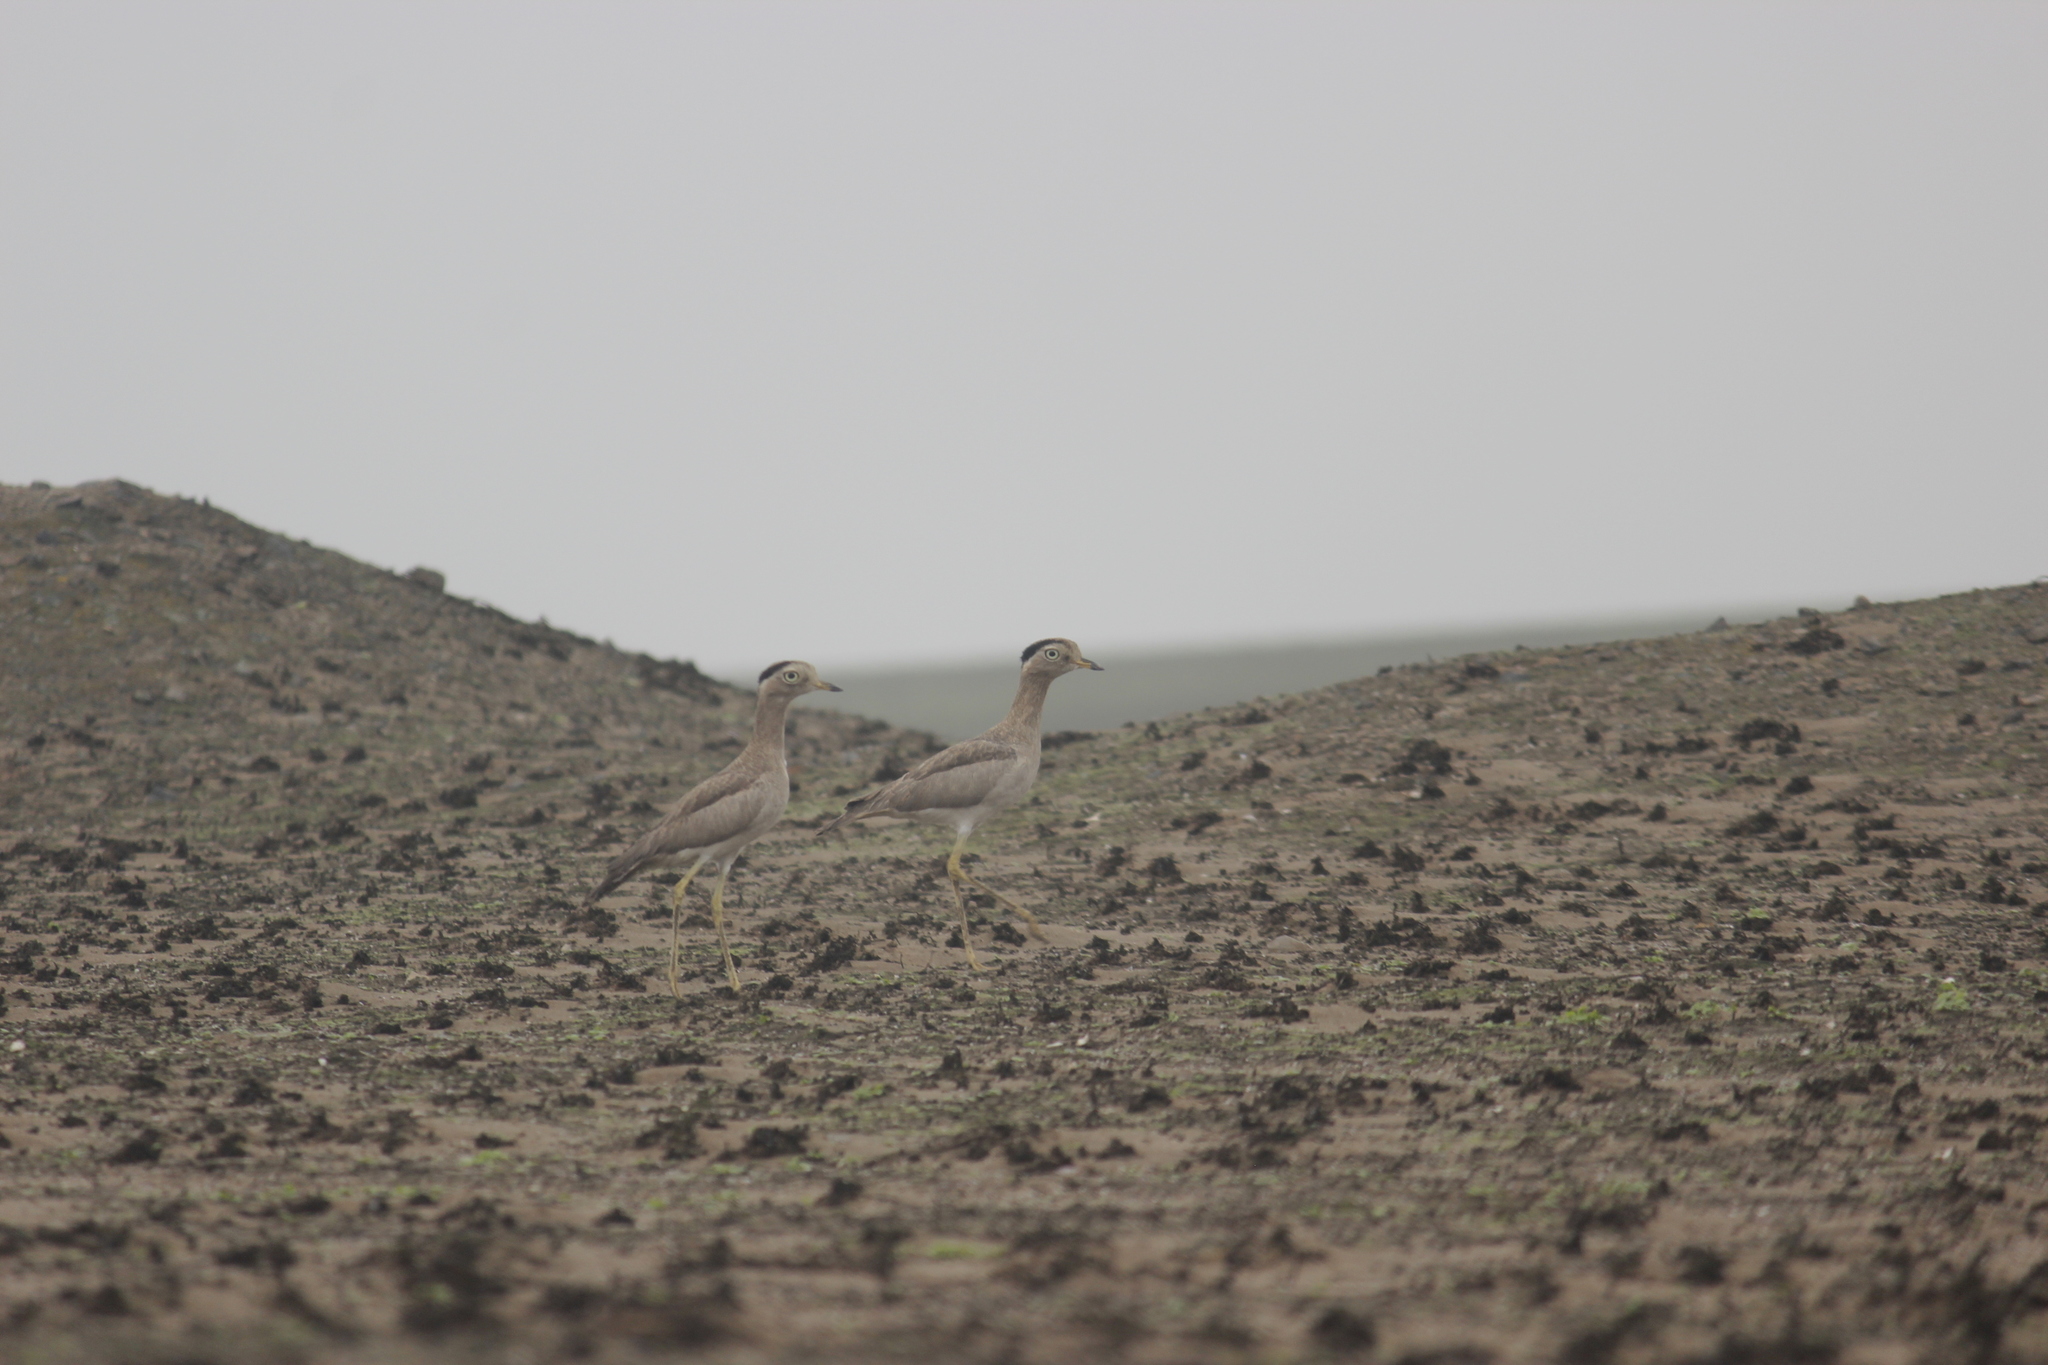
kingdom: Animalia
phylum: Chordata
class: Aves
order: Charadriiformes
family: Burhinidae
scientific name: Burhinidae
